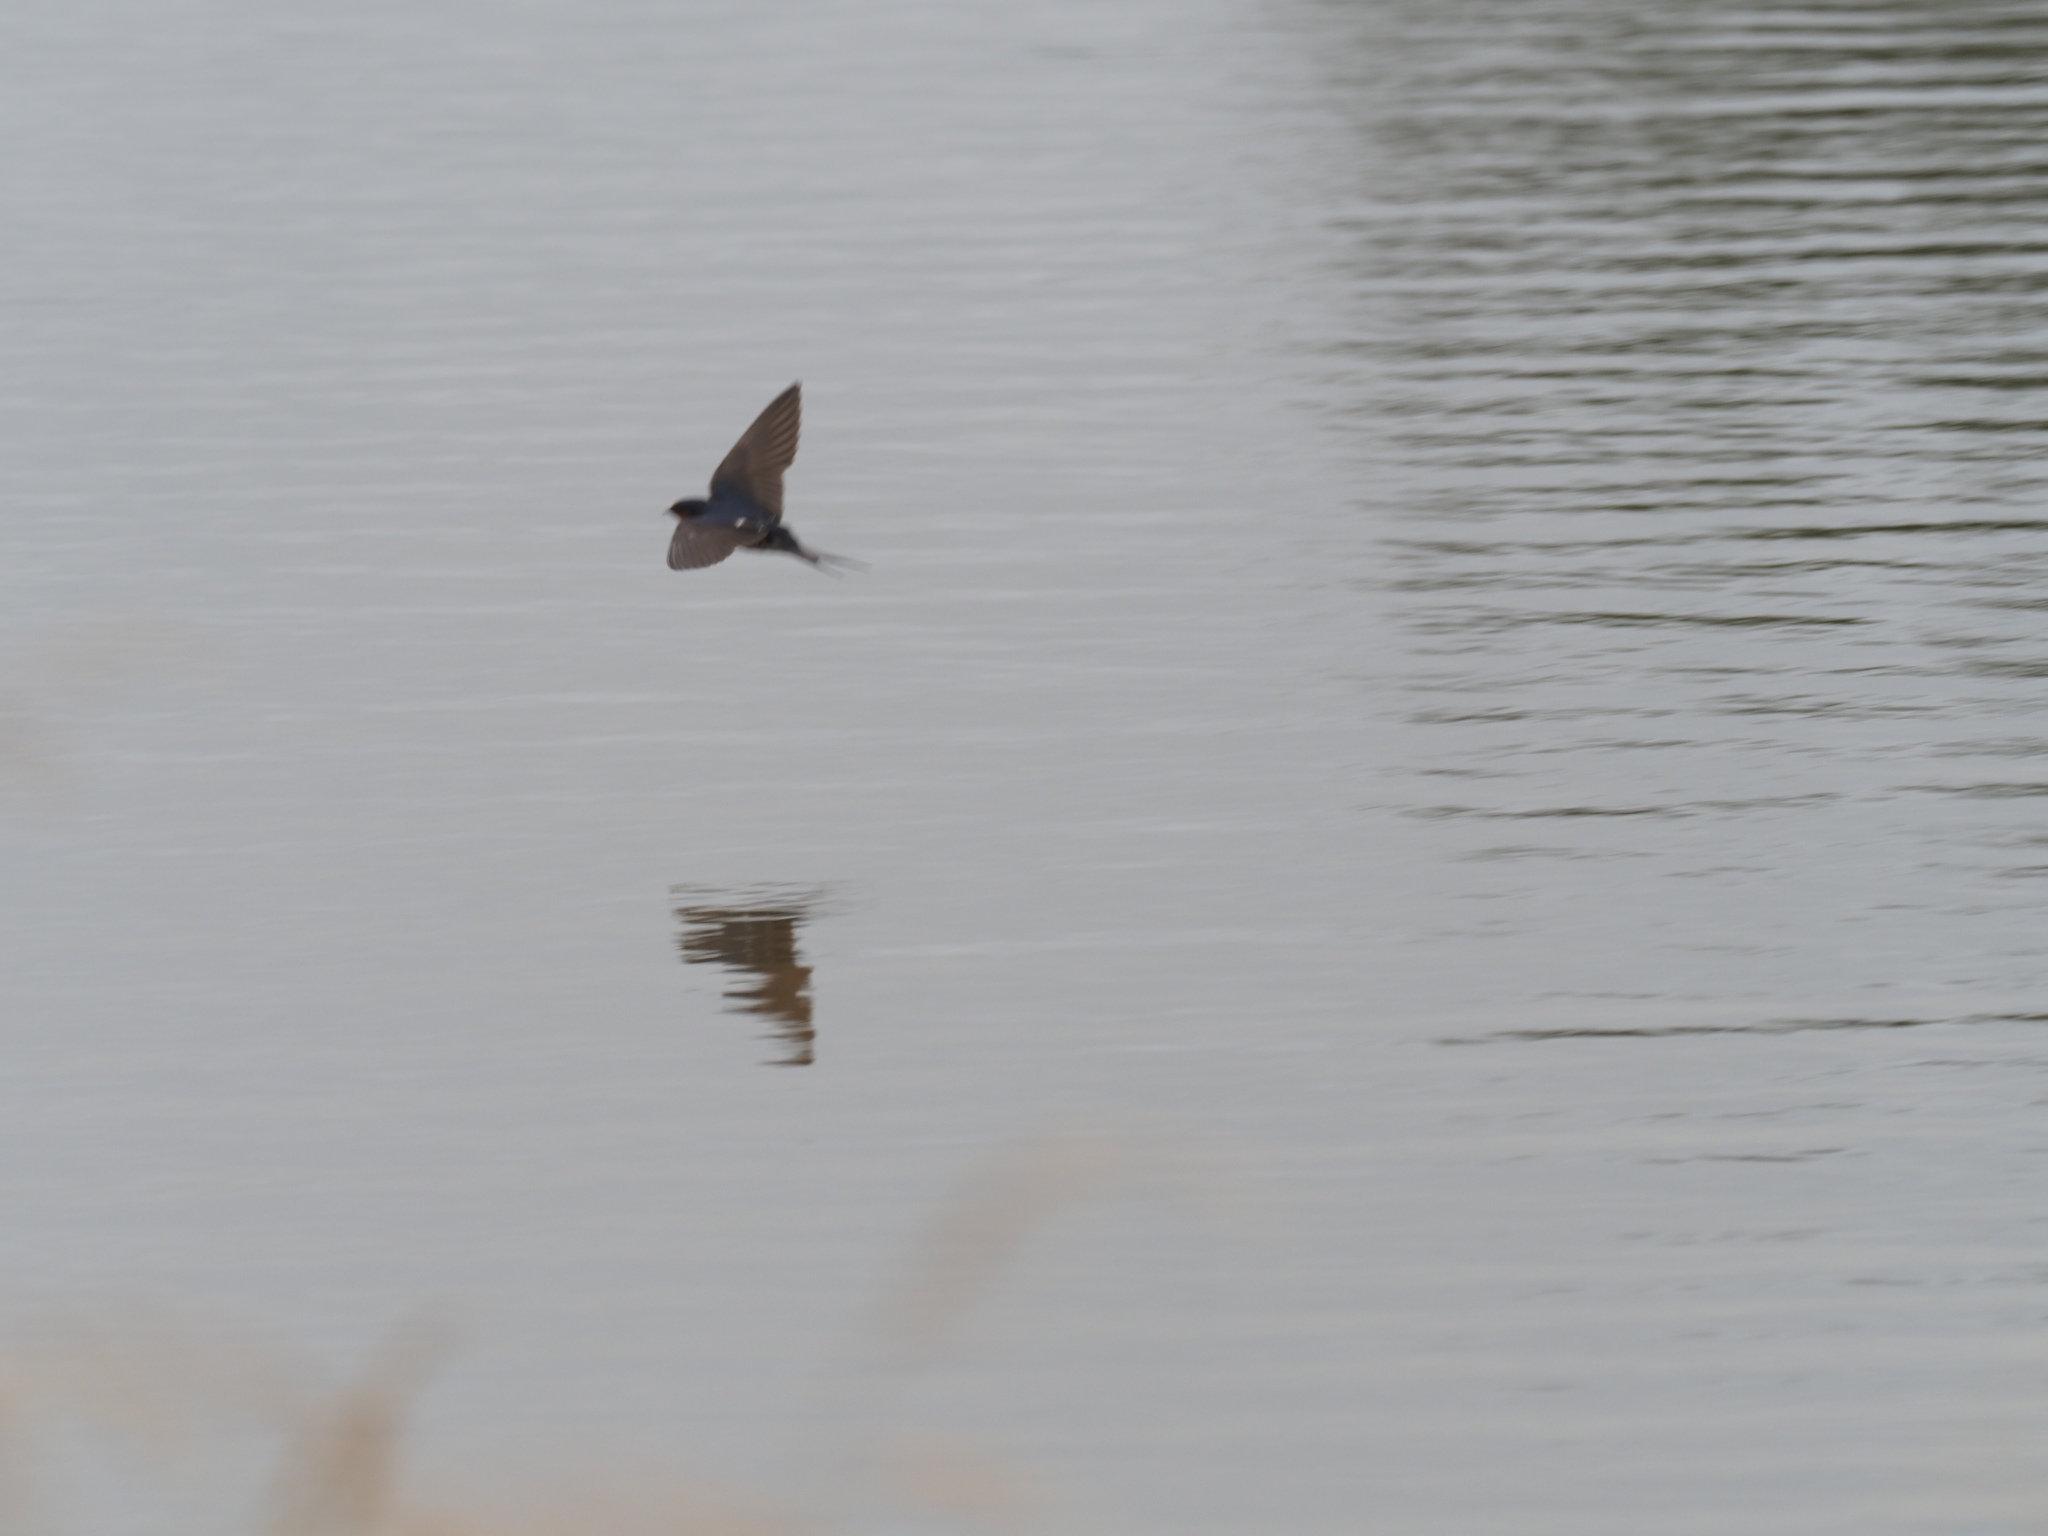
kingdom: Animalia
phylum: Chordata
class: Aves
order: Passeriformes
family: Hirundinidae
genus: Hirundo
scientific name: Hirundo neoxena
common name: Welcome swallow
